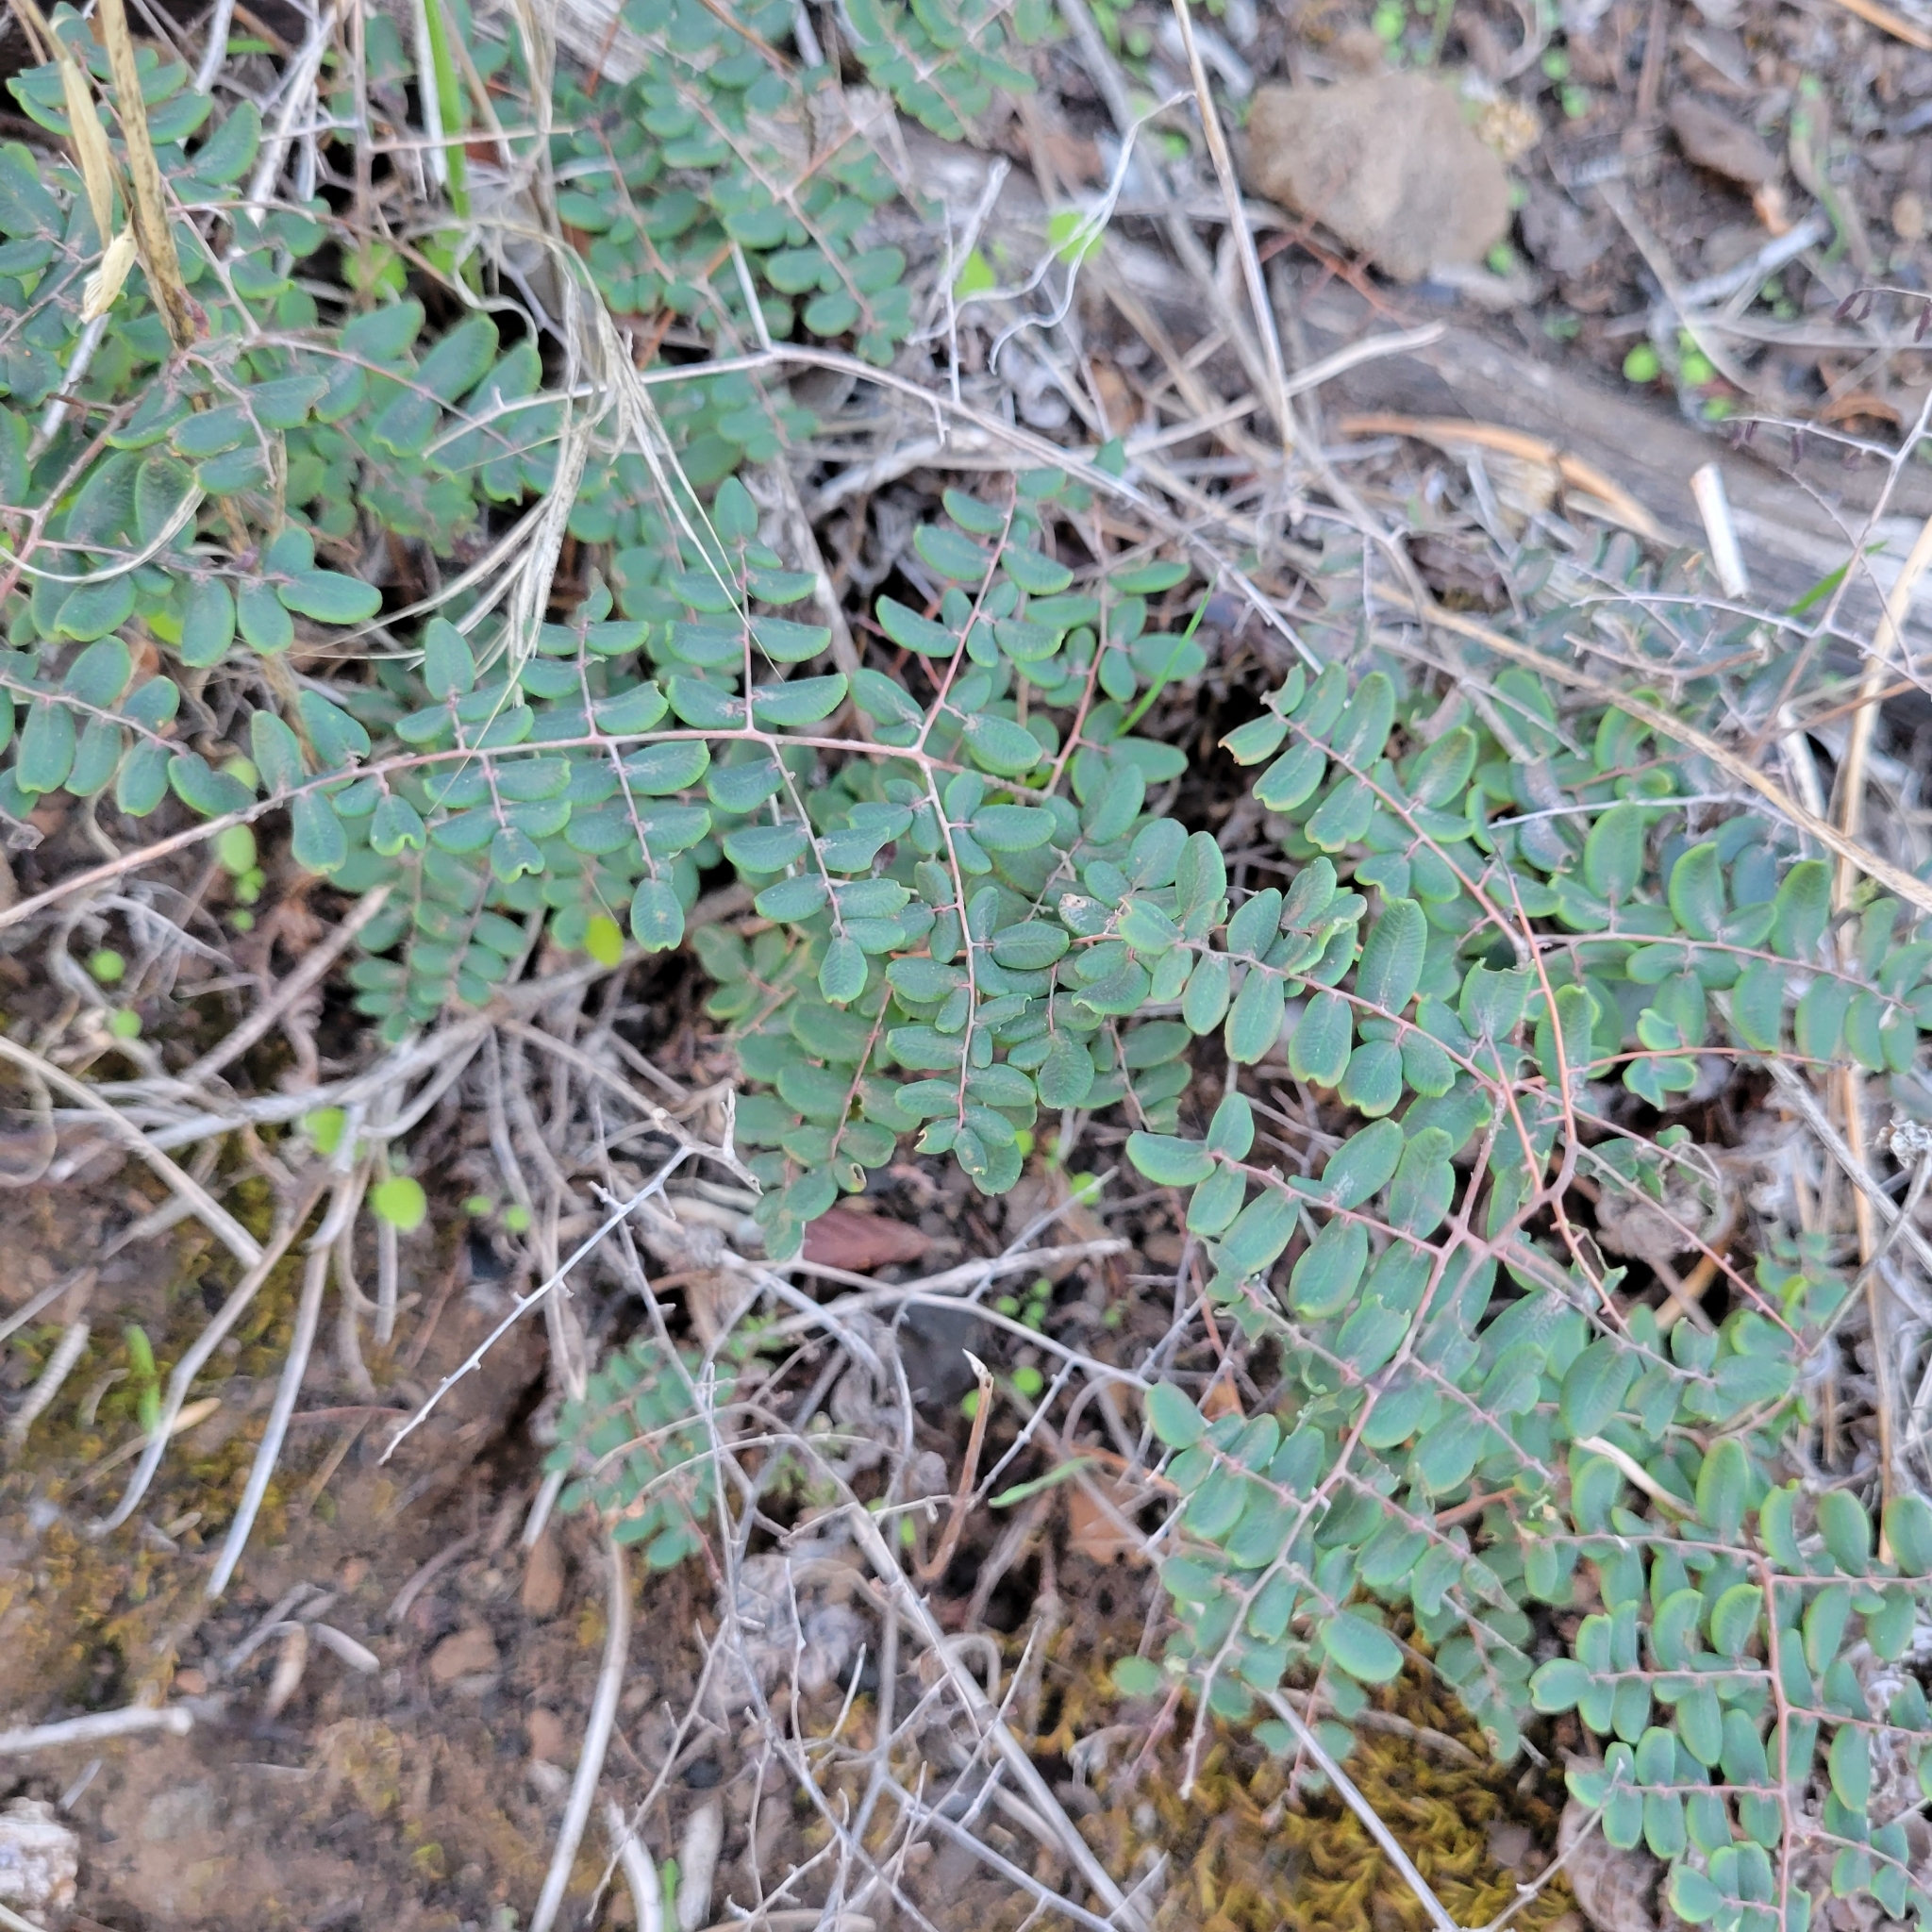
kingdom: Plantae
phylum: Tracheophyta
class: Polypodiopsida
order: Polypodiales
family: Pteridaceae
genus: Pellaea
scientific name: Pellaea andromedifolia
